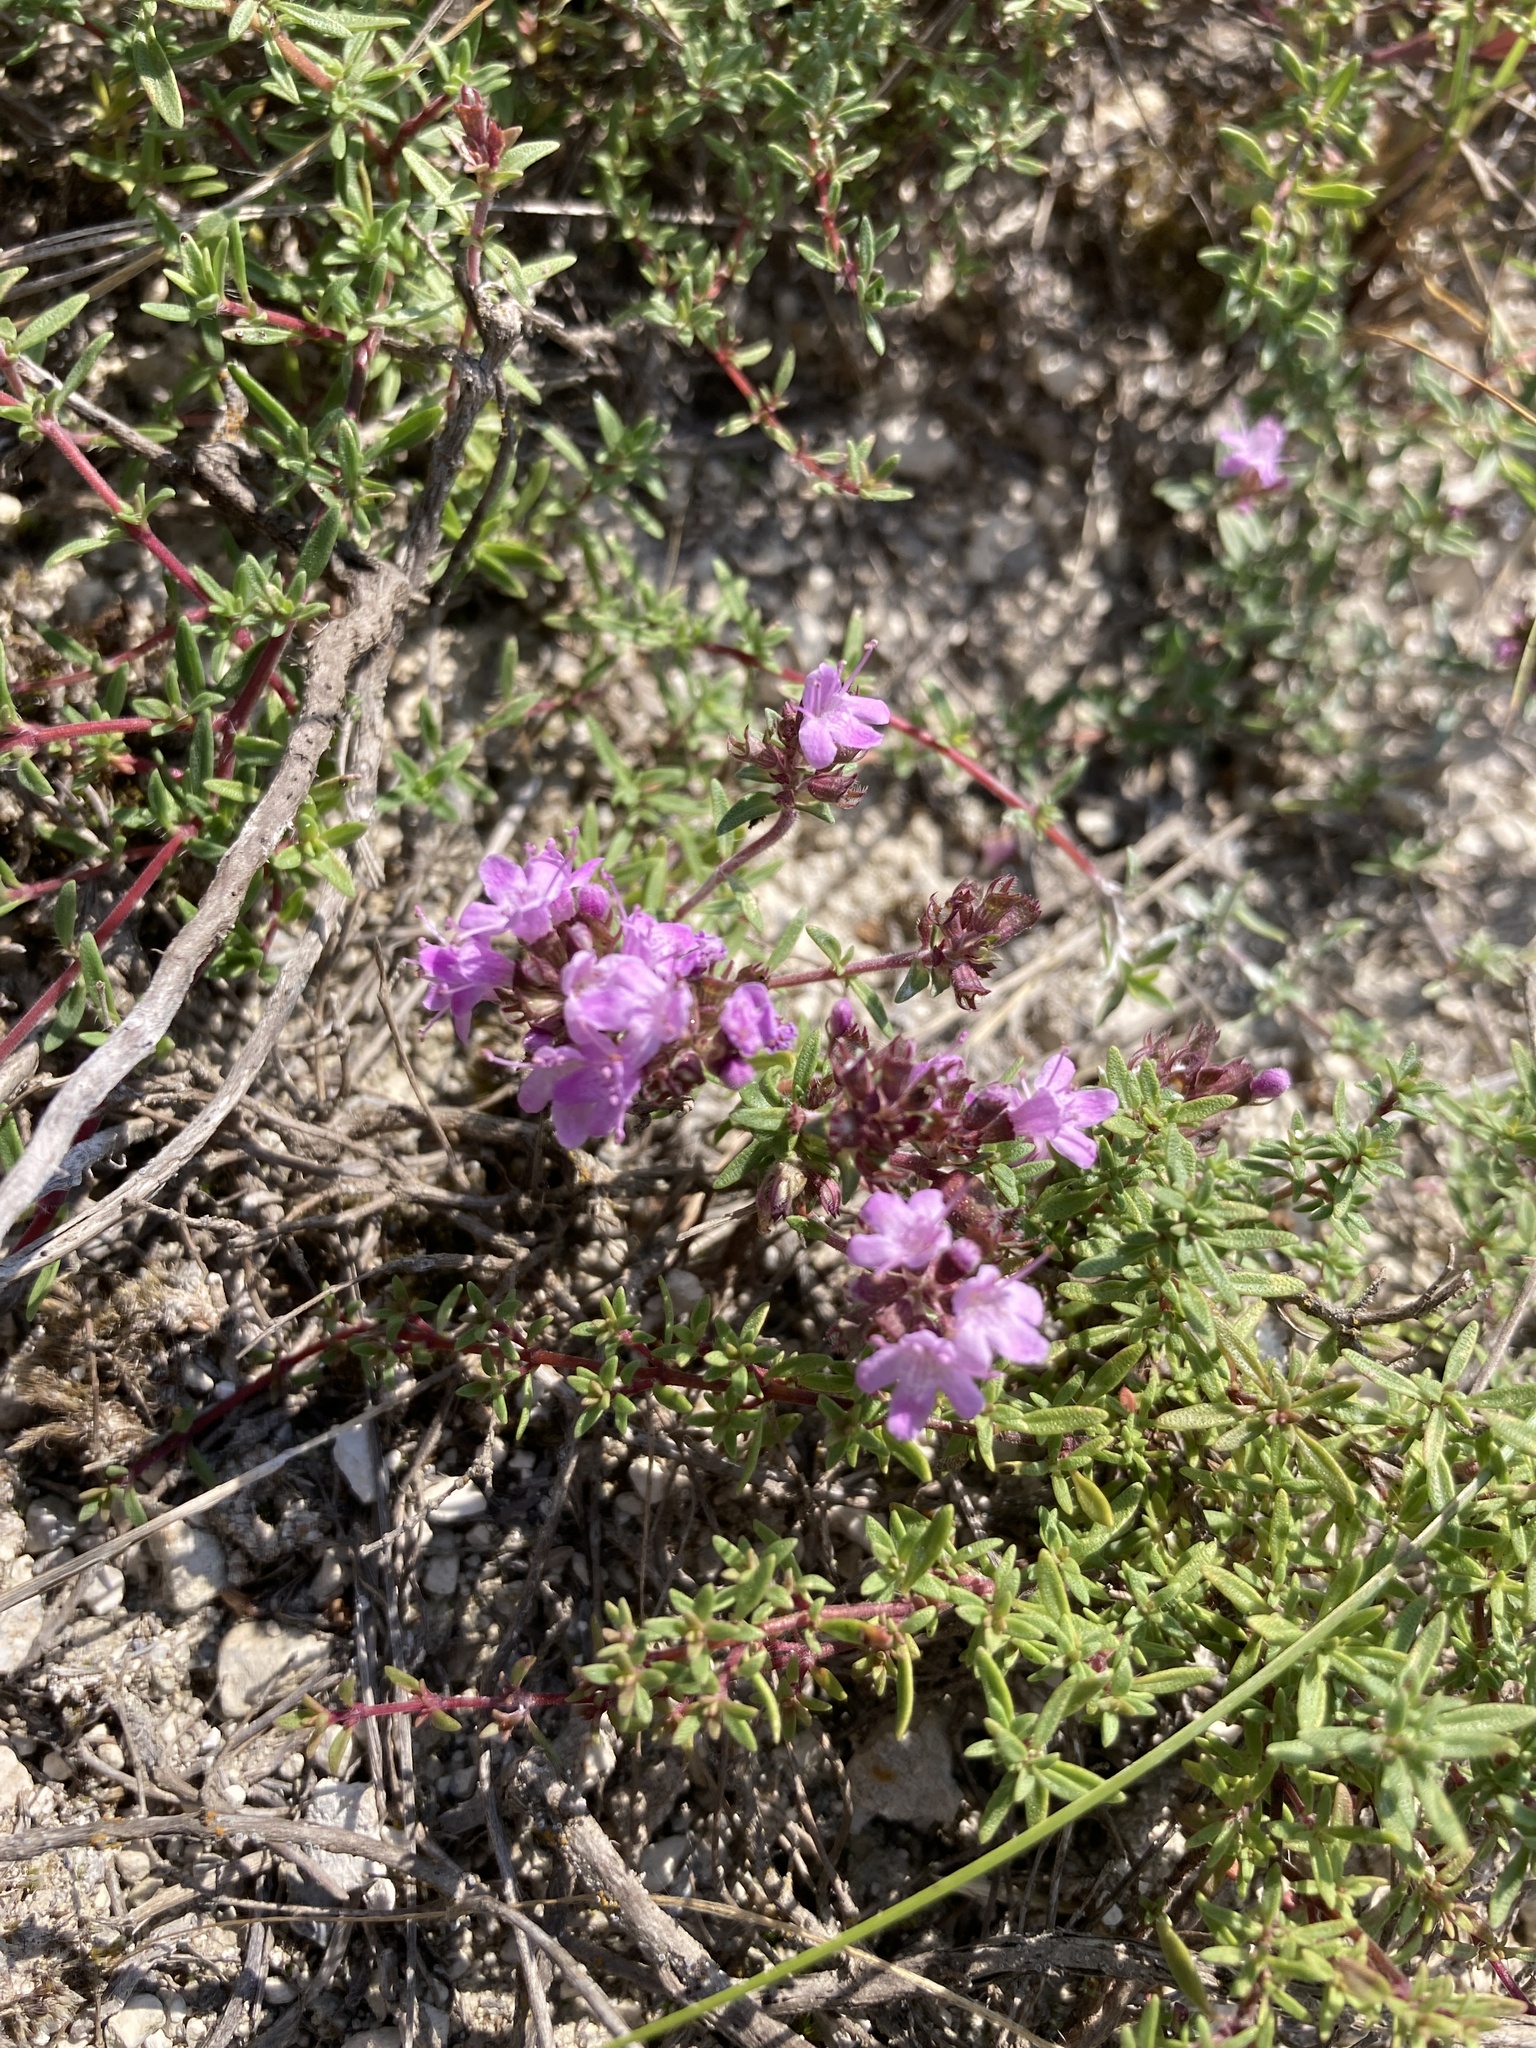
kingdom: Plantae
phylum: Tracheophyta
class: Magnoliopsida
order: Lamiales
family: Lamiaceae
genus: Thymus
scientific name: Thymus calcareus
